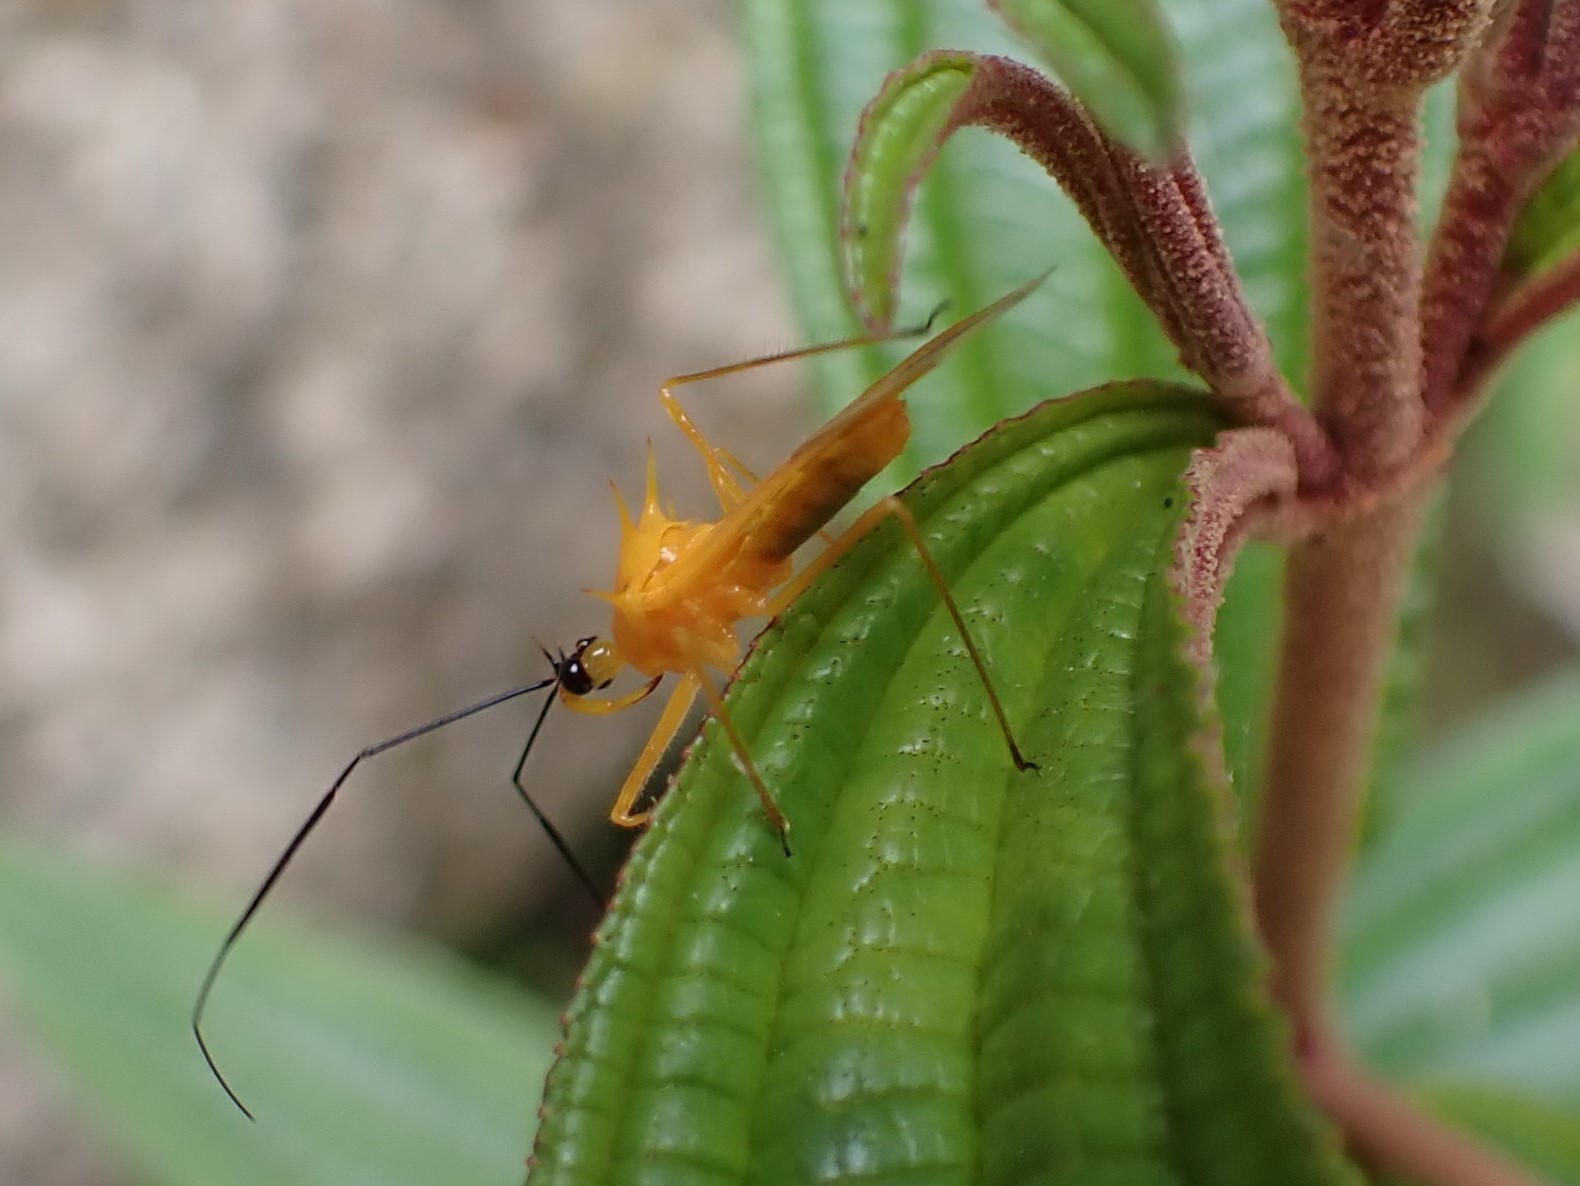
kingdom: Animalia
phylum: Arthropoda
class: Insecta
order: Hemiptera
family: Reduviidae
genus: Corcia
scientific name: Corcia columbica
